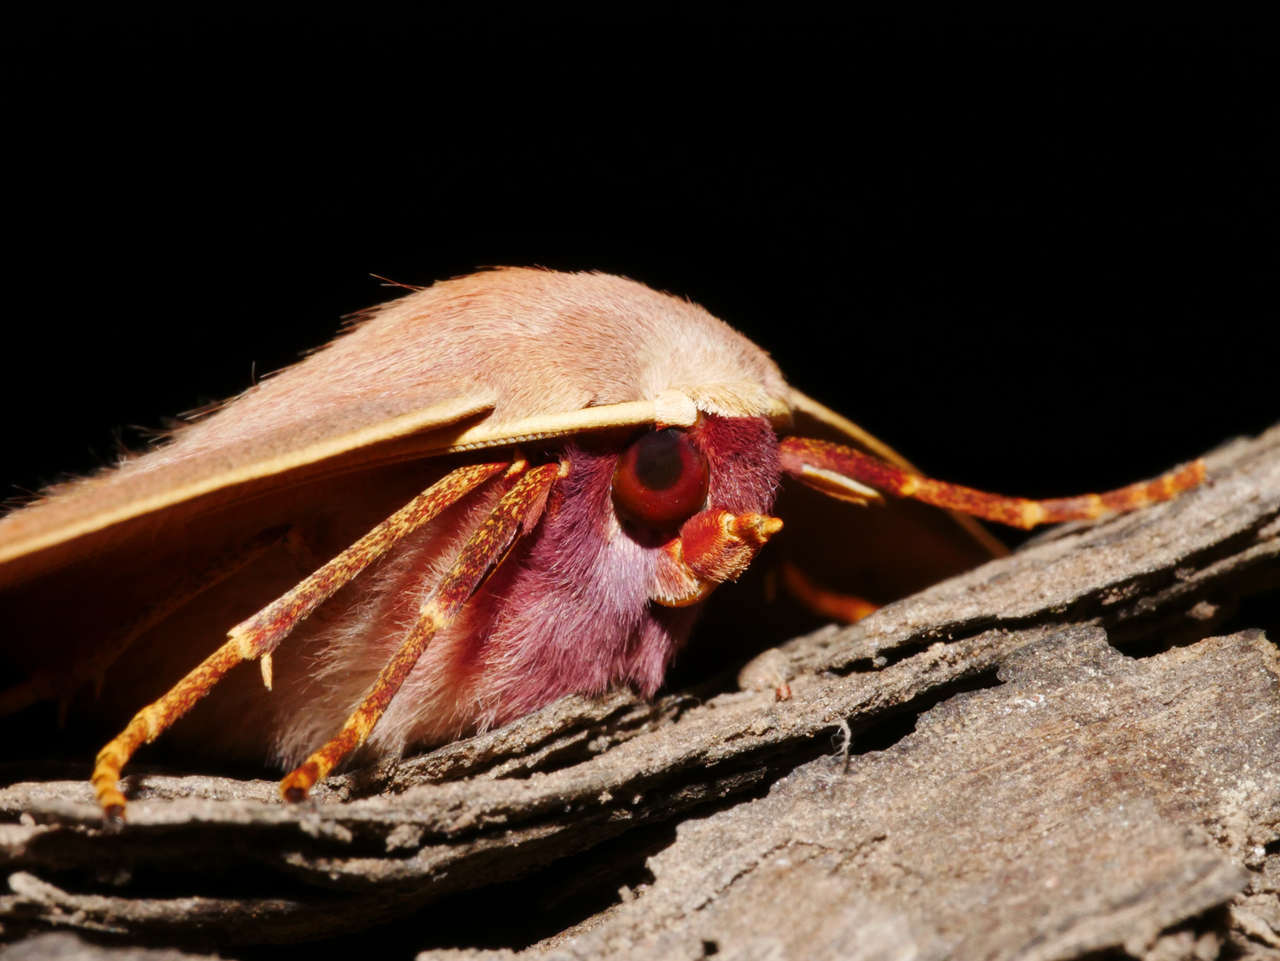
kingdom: Animalia
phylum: Arthropoda
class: Insecta
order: Lepidoptera
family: Geometridae
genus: Monoctenia
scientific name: Monoctenia falernaria
